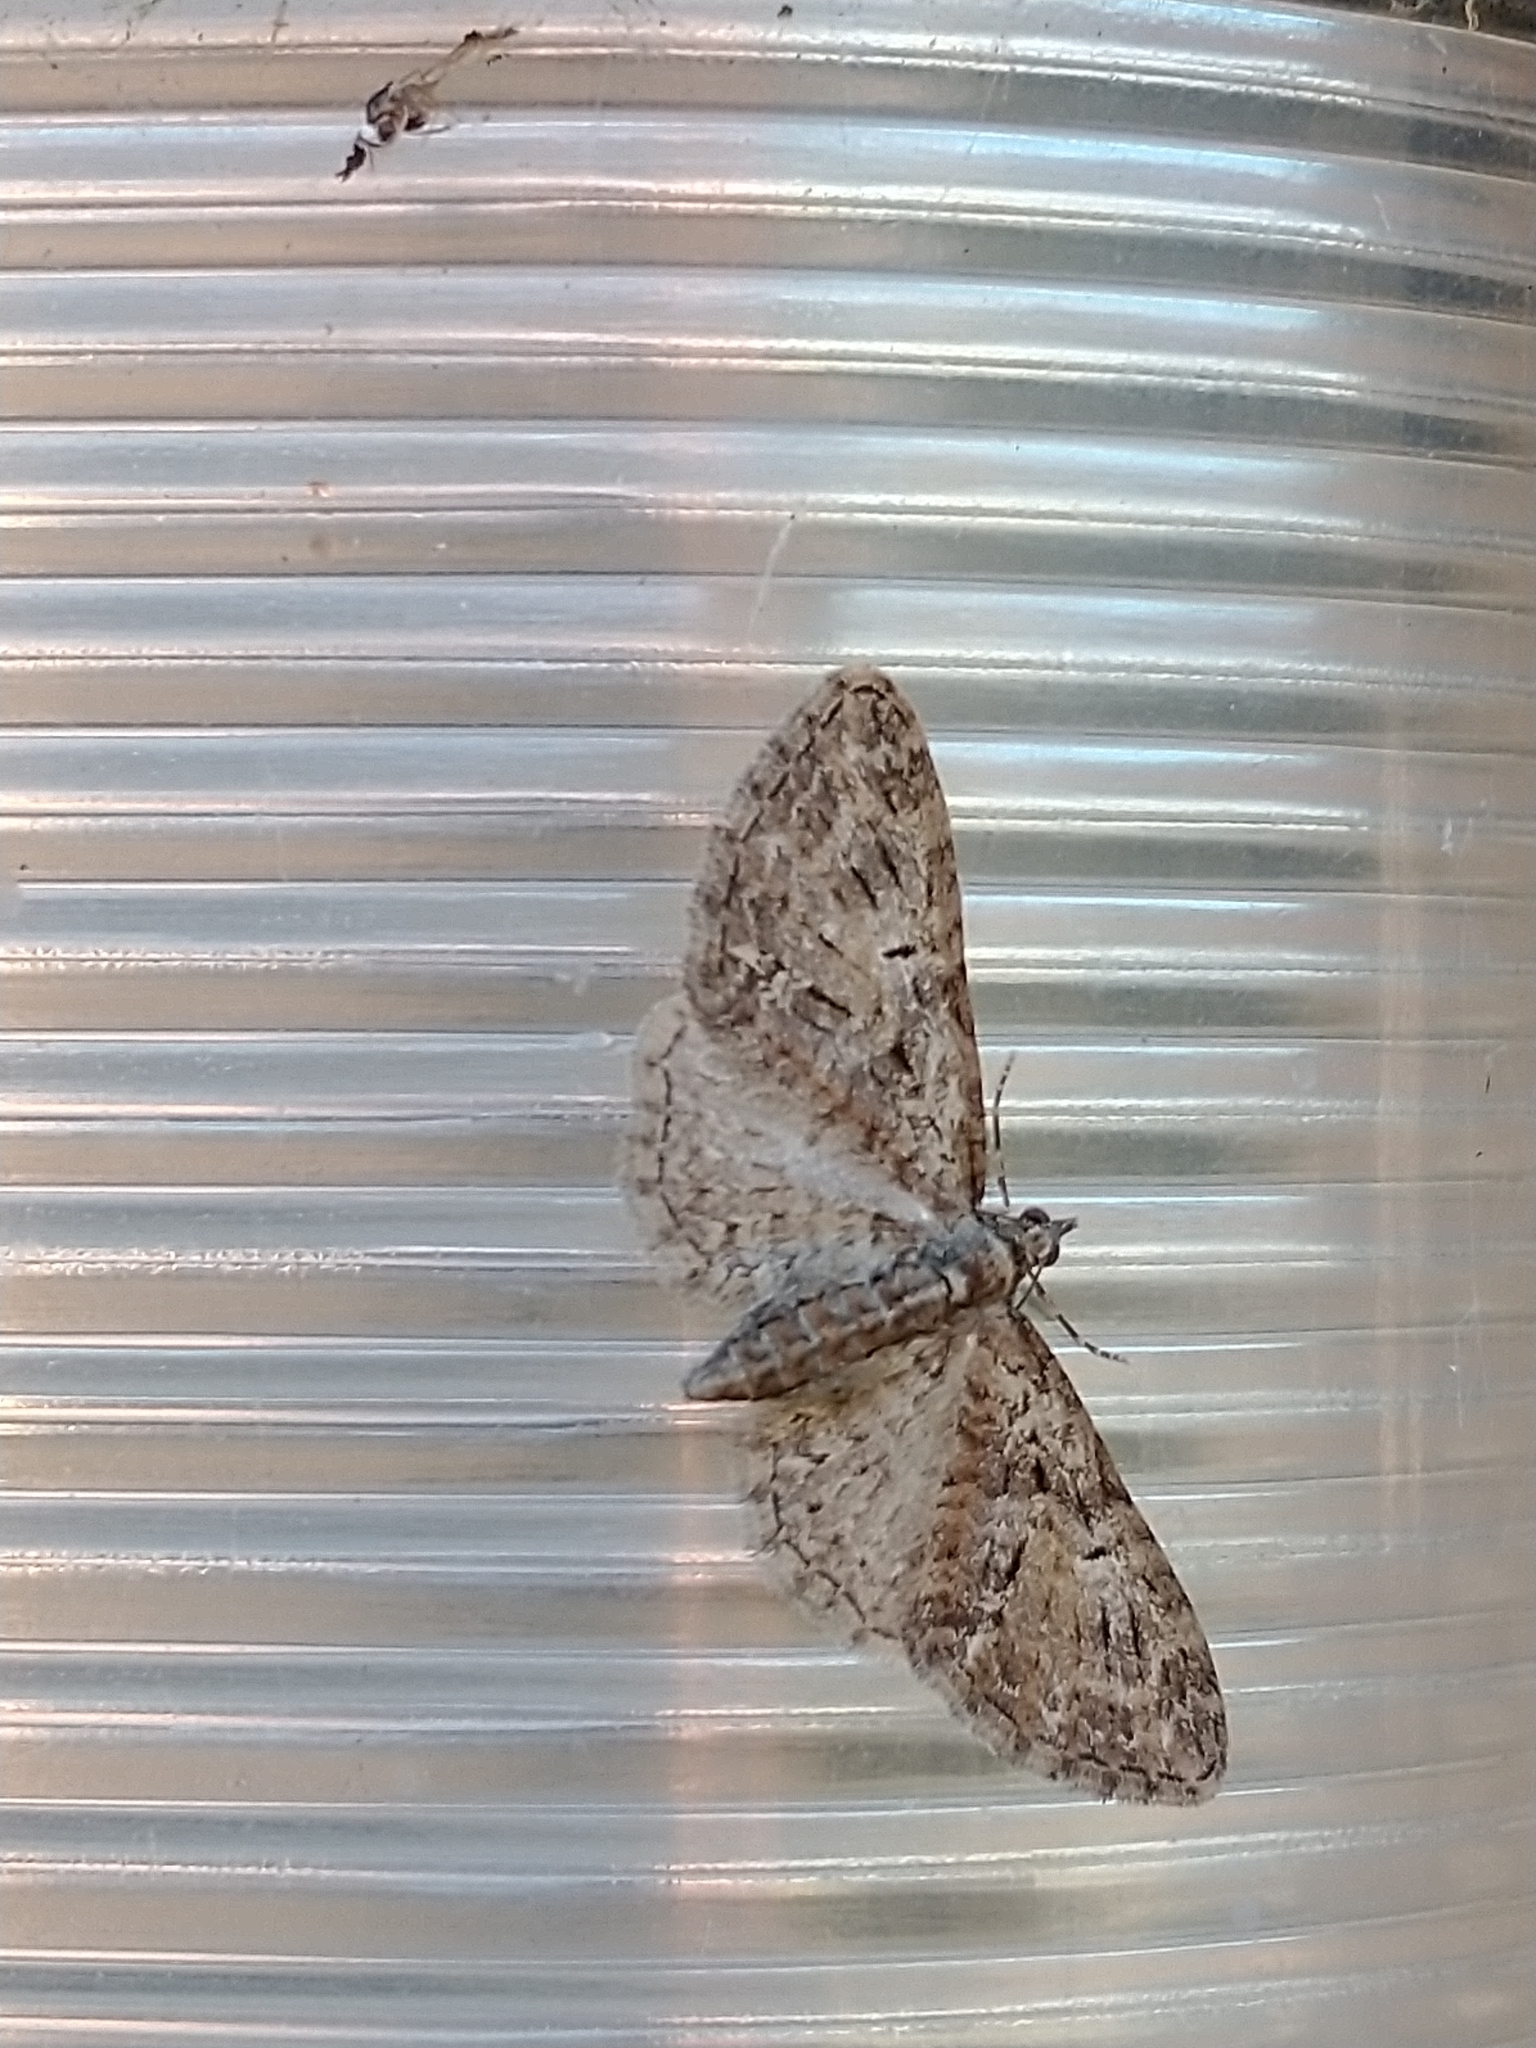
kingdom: Animalia
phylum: Arthropoda
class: Insecta
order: Lepidoptera
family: Geometridae
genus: Eupithecia
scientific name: Eupithecia abbreviata
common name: Brindled pug
